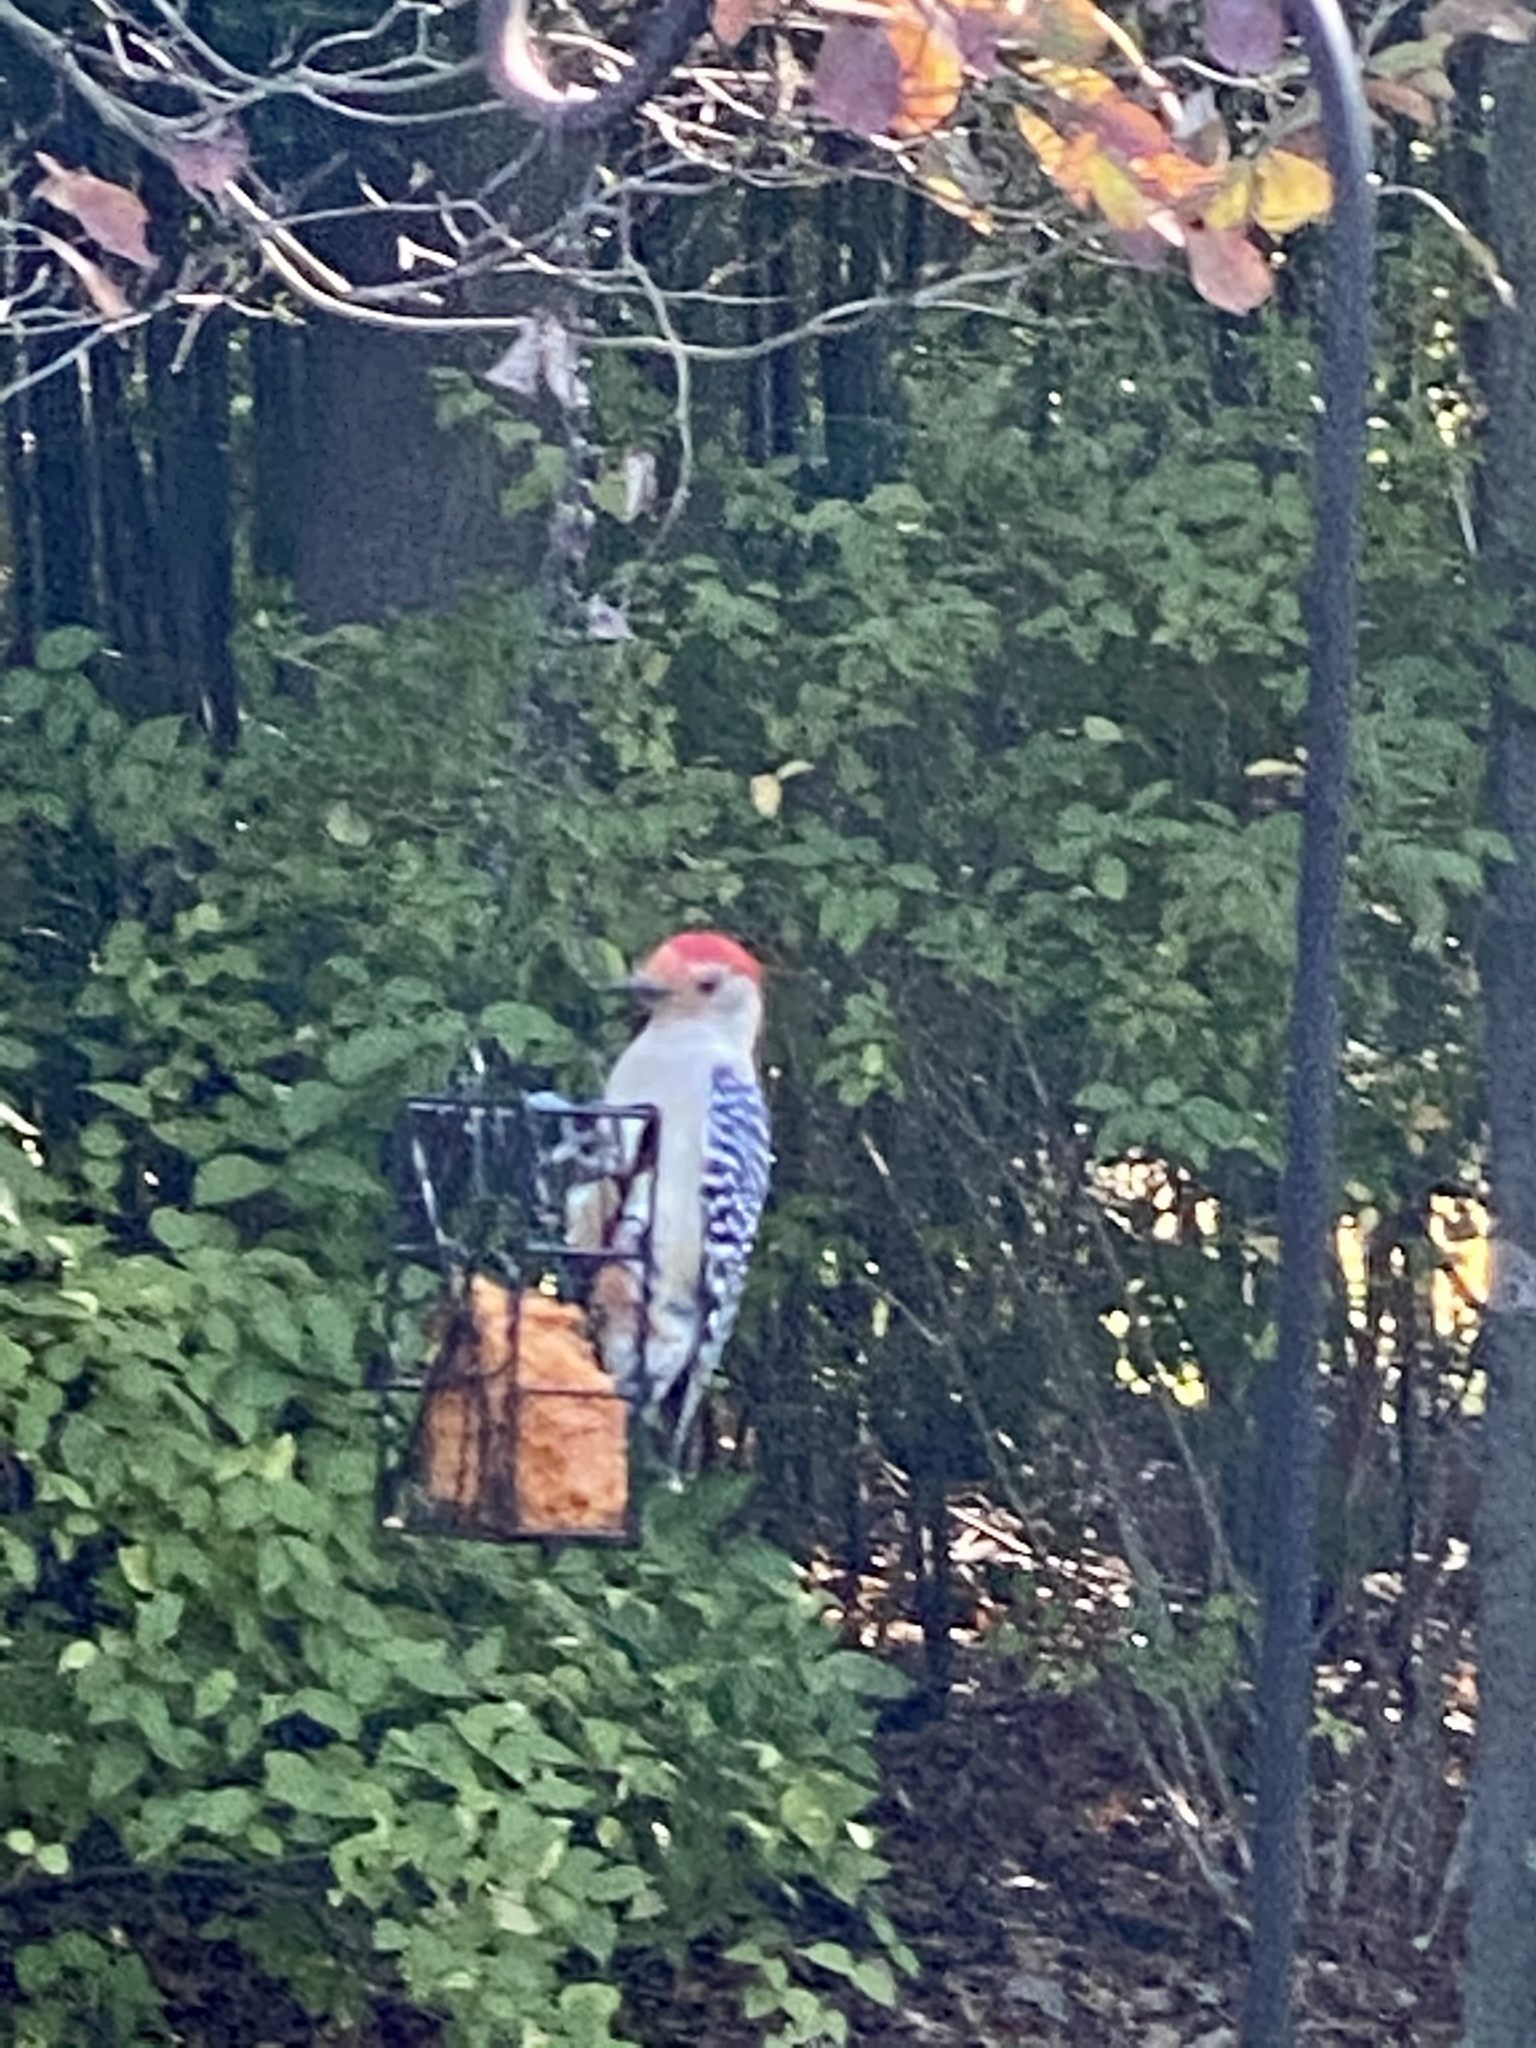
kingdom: Animalia
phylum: Chordata
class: Aves
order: Piciformes
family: Picidae
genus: Melanerpes
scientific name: Melanerpes carolinus
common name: Red-bellied woodpecker
